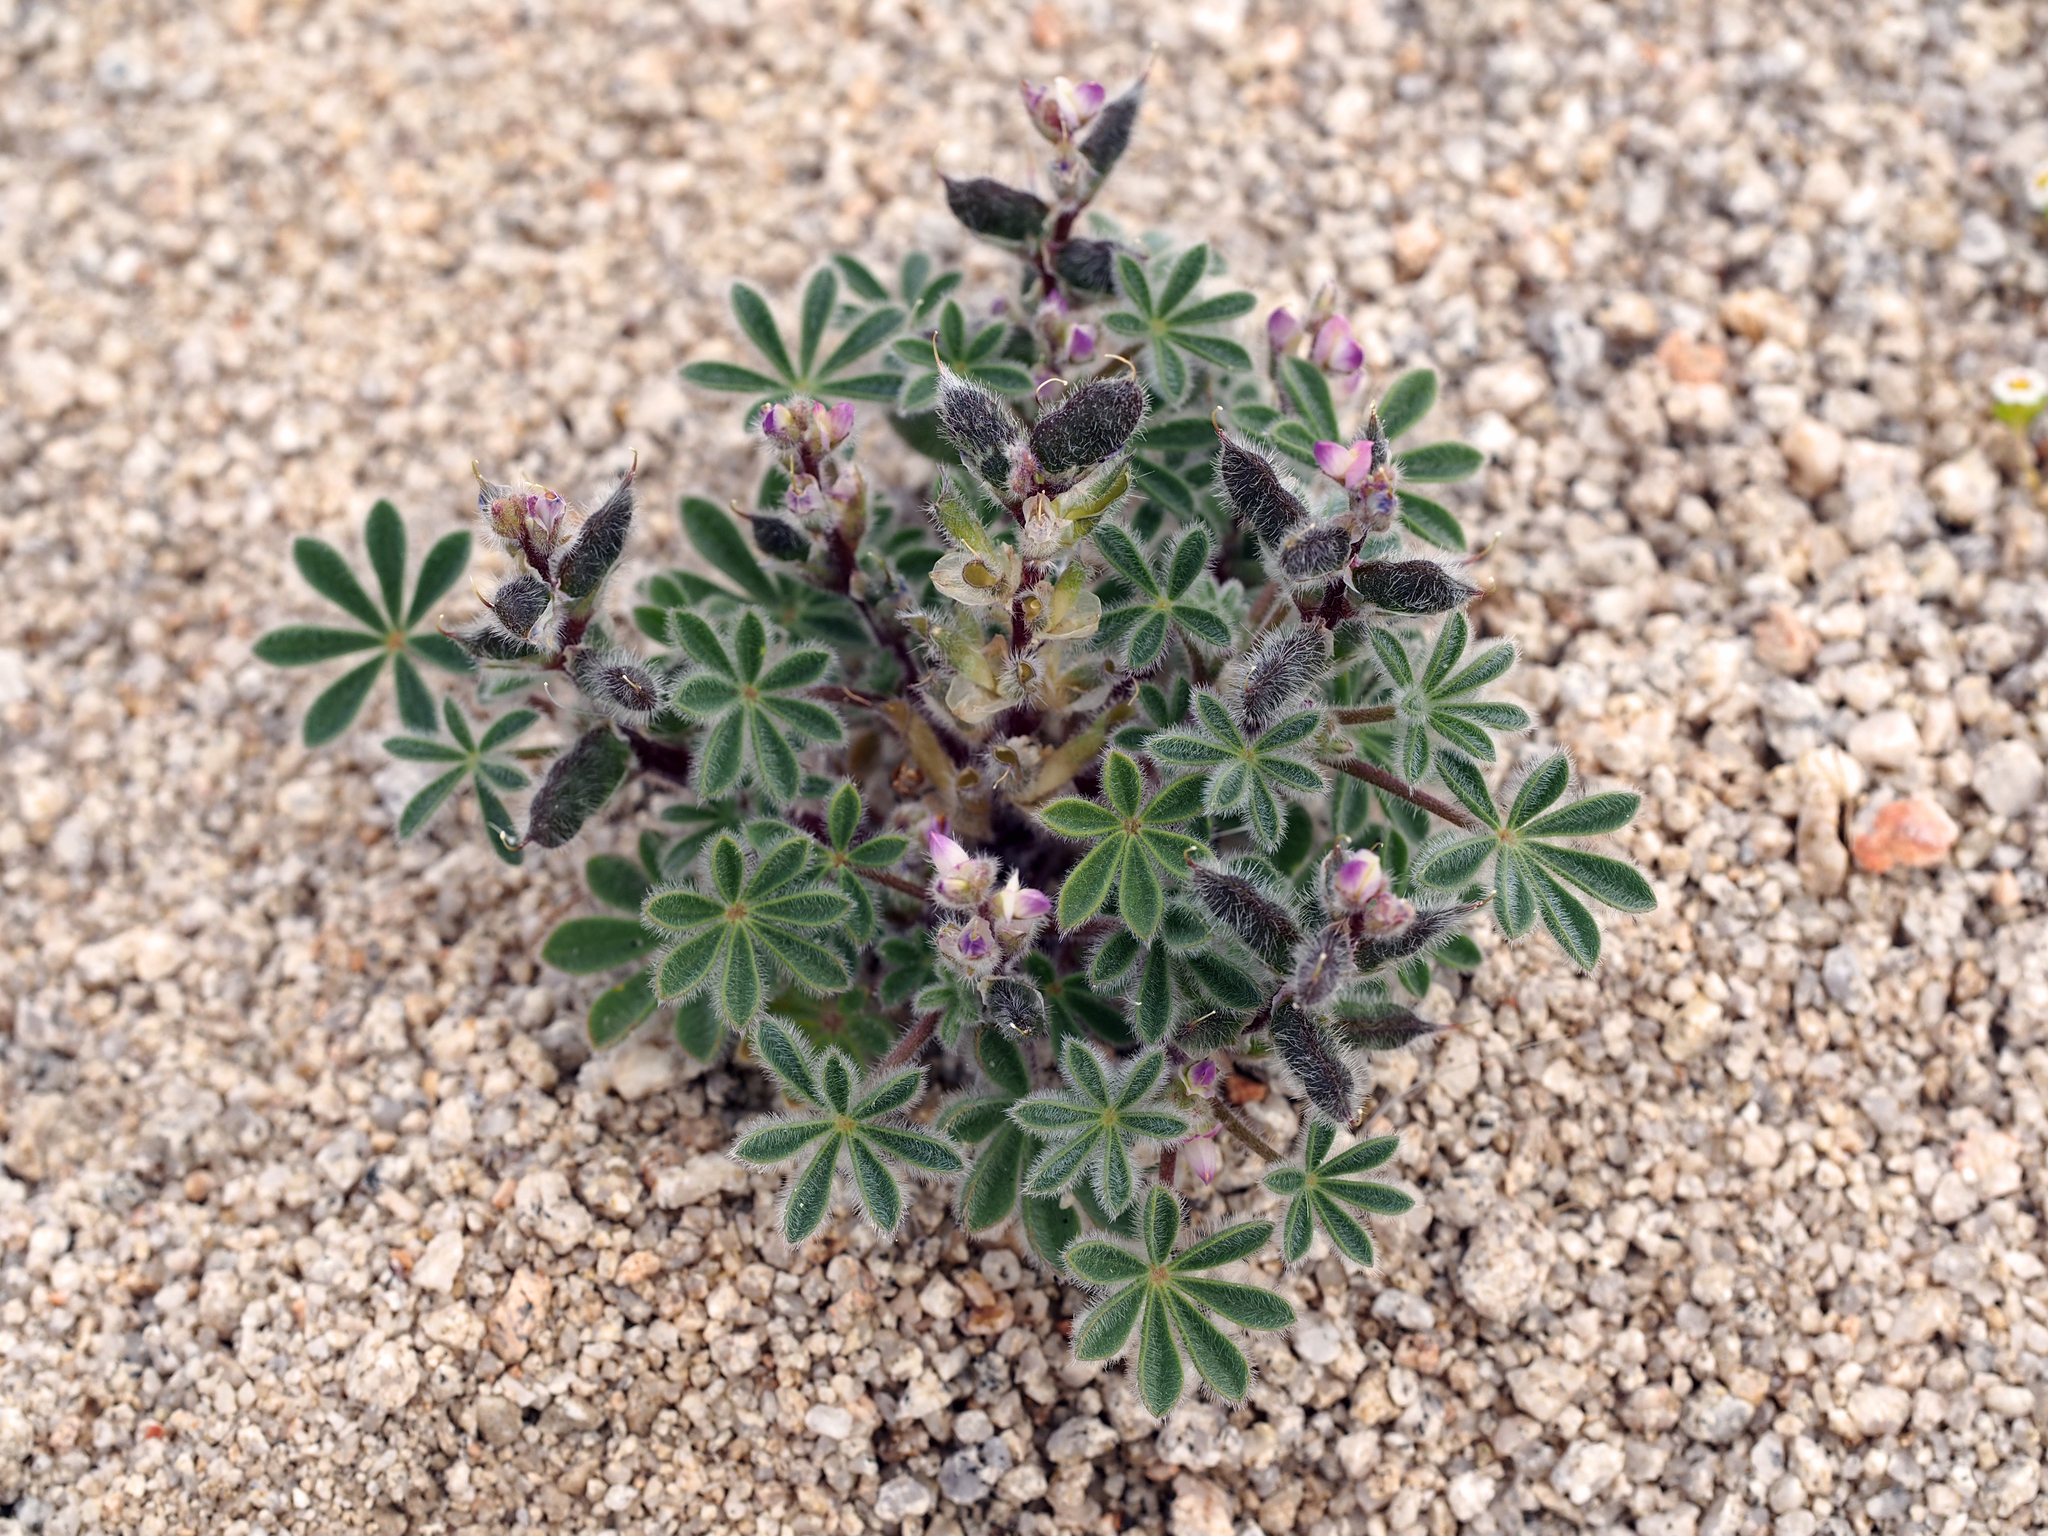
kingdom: Plantae
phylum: Tracheophyta
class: Magnoliopsida
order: Fabales
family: Fabaceae
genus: Lupinus
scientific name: Lupinus concinnus
